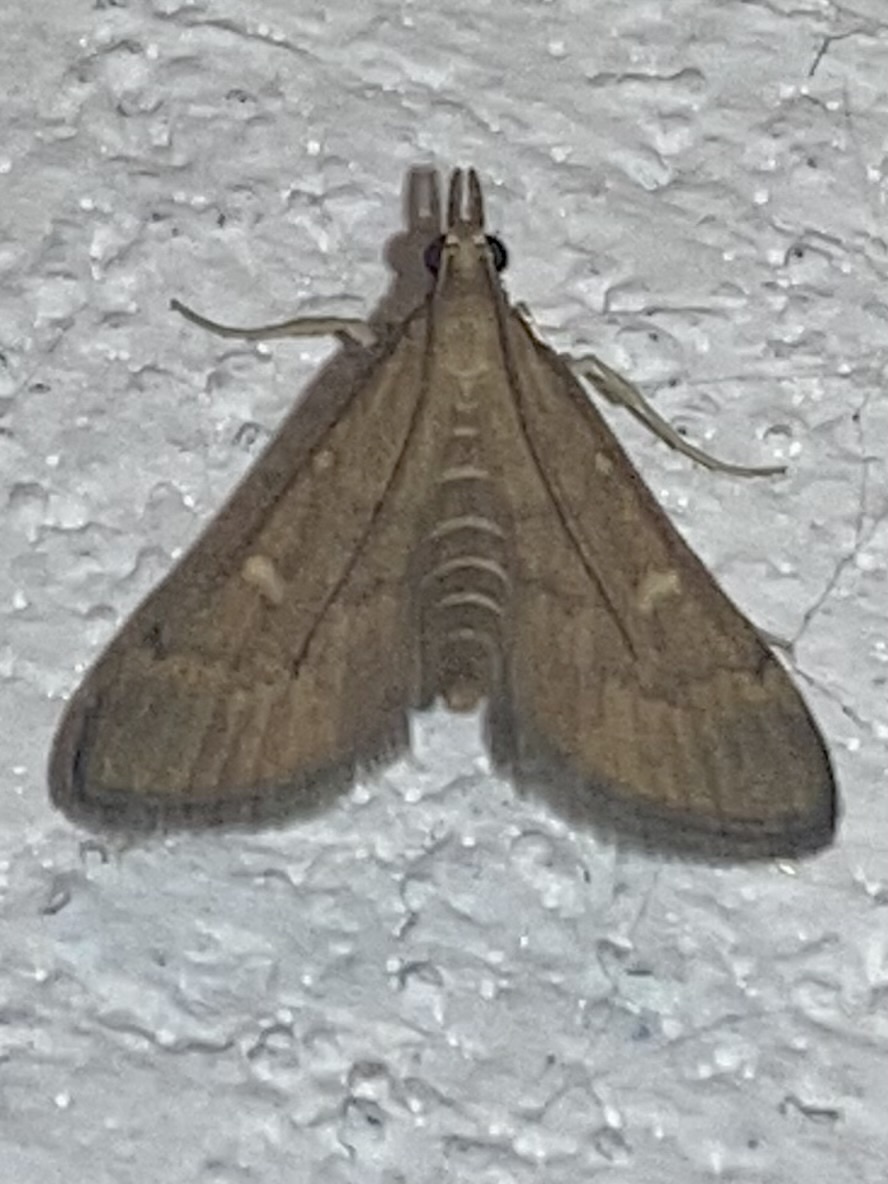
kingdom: Animalia
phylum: Arthropoda
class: Insecta
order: Lepidoptera
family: Crambidae
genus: Stenia
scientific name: Stenia Dolicharthria punctalis
